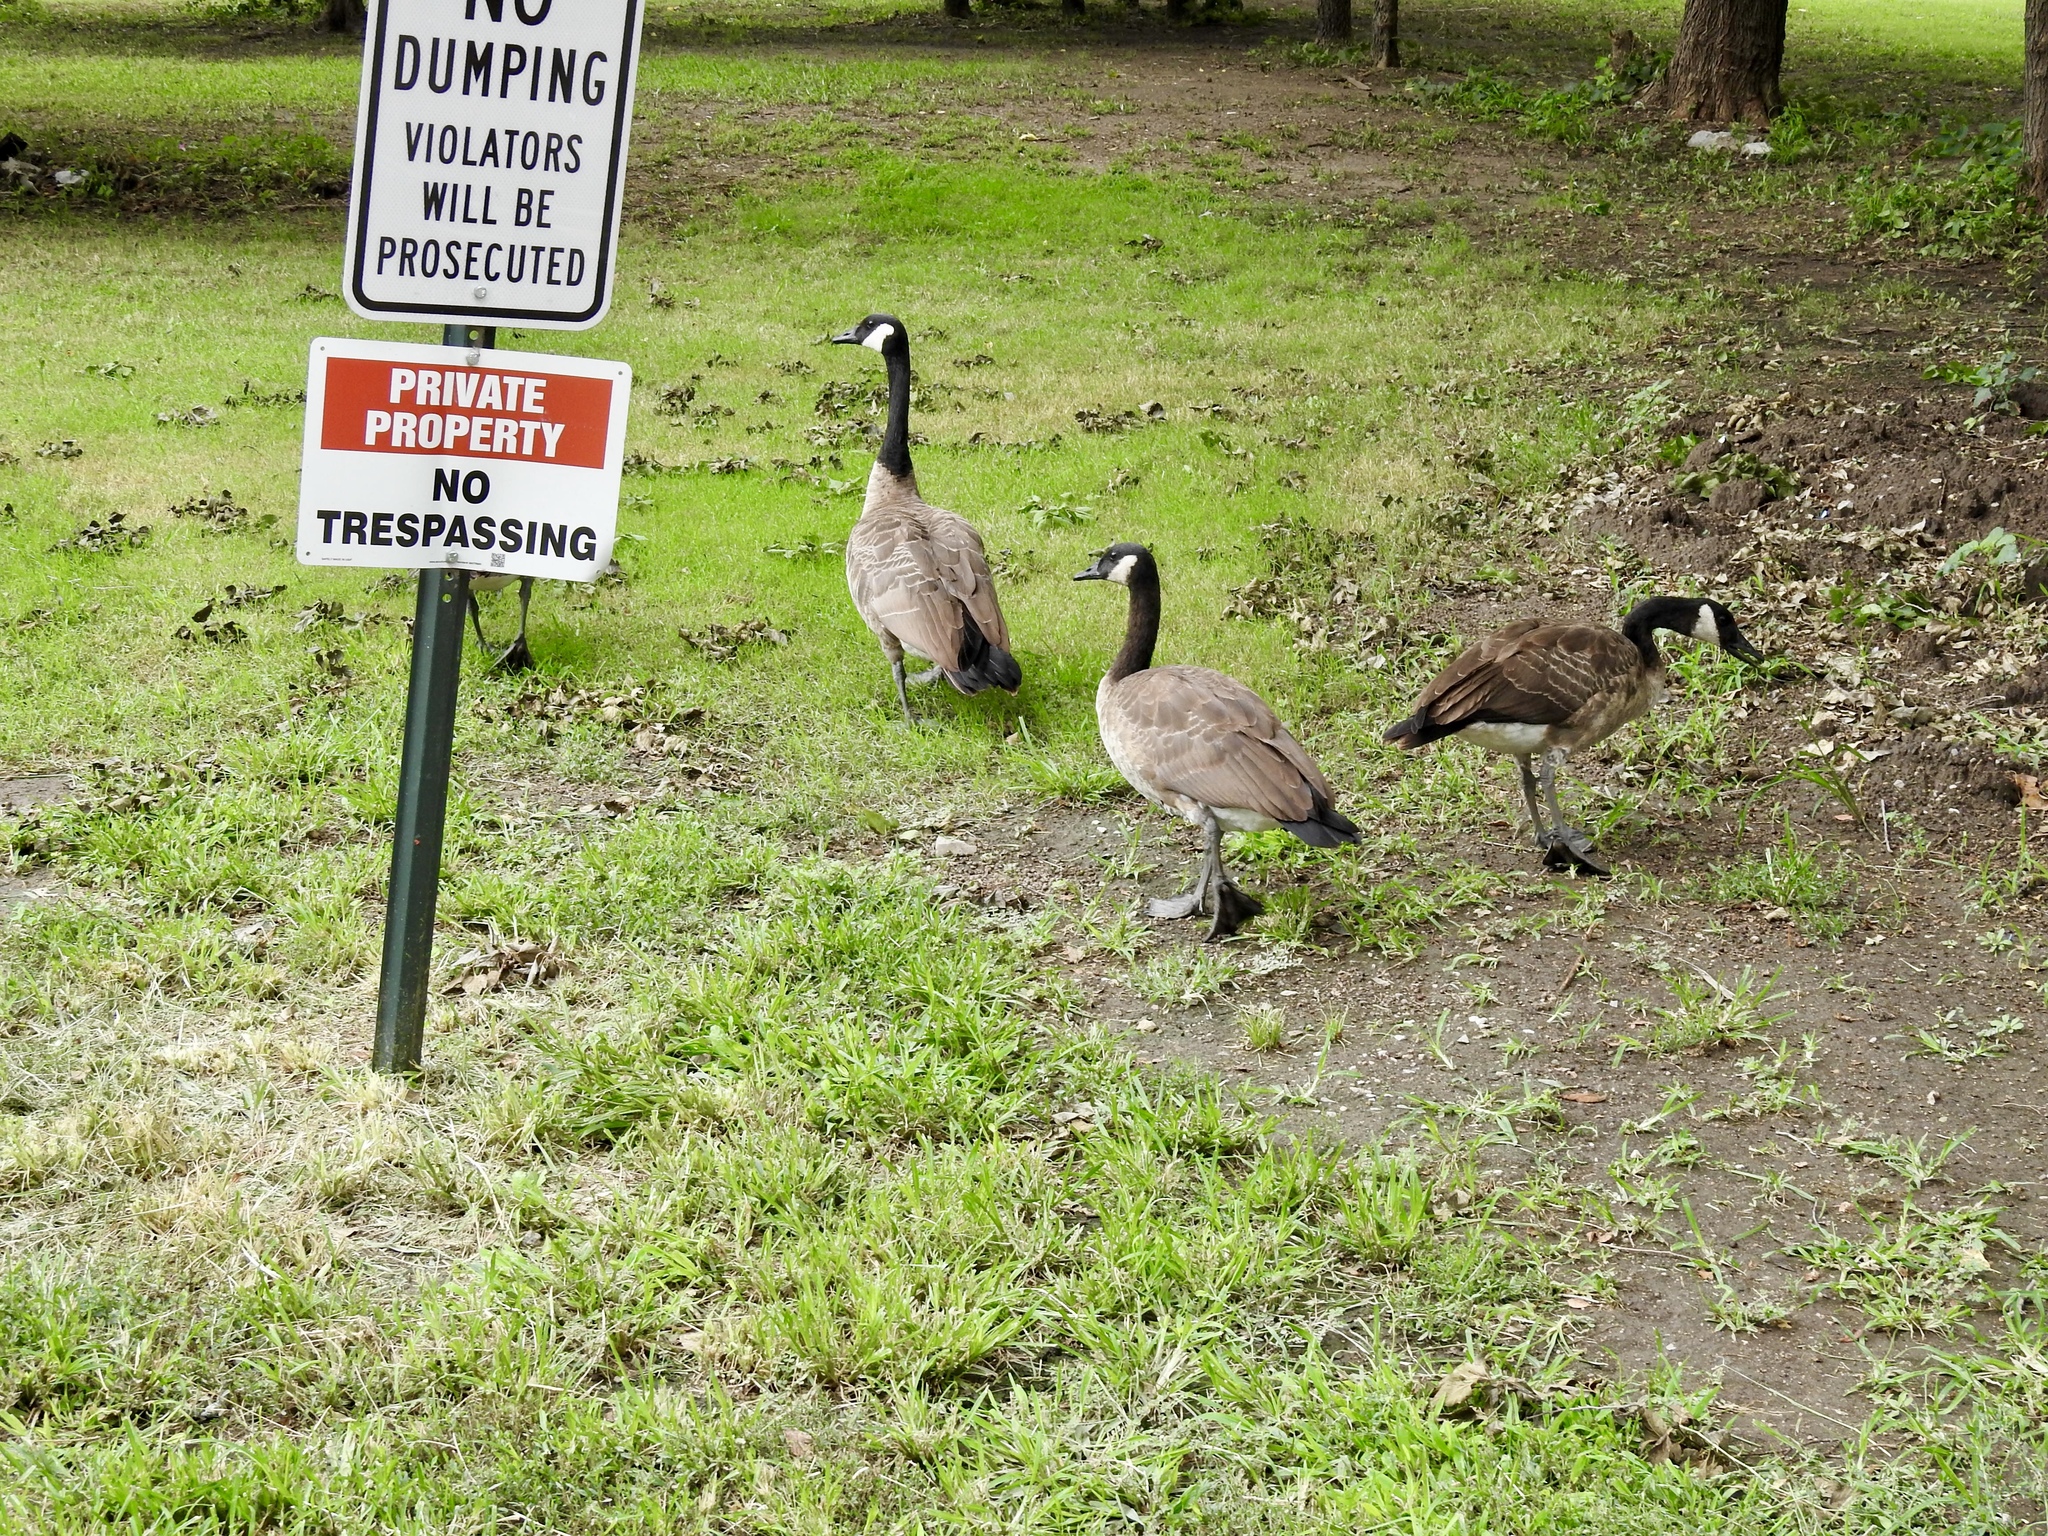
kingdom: Animalia
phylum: Chordata
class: Aves
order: Anseriformes
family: Anatidae
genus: Branta
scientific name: Branta canadensis
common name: Canada goose
